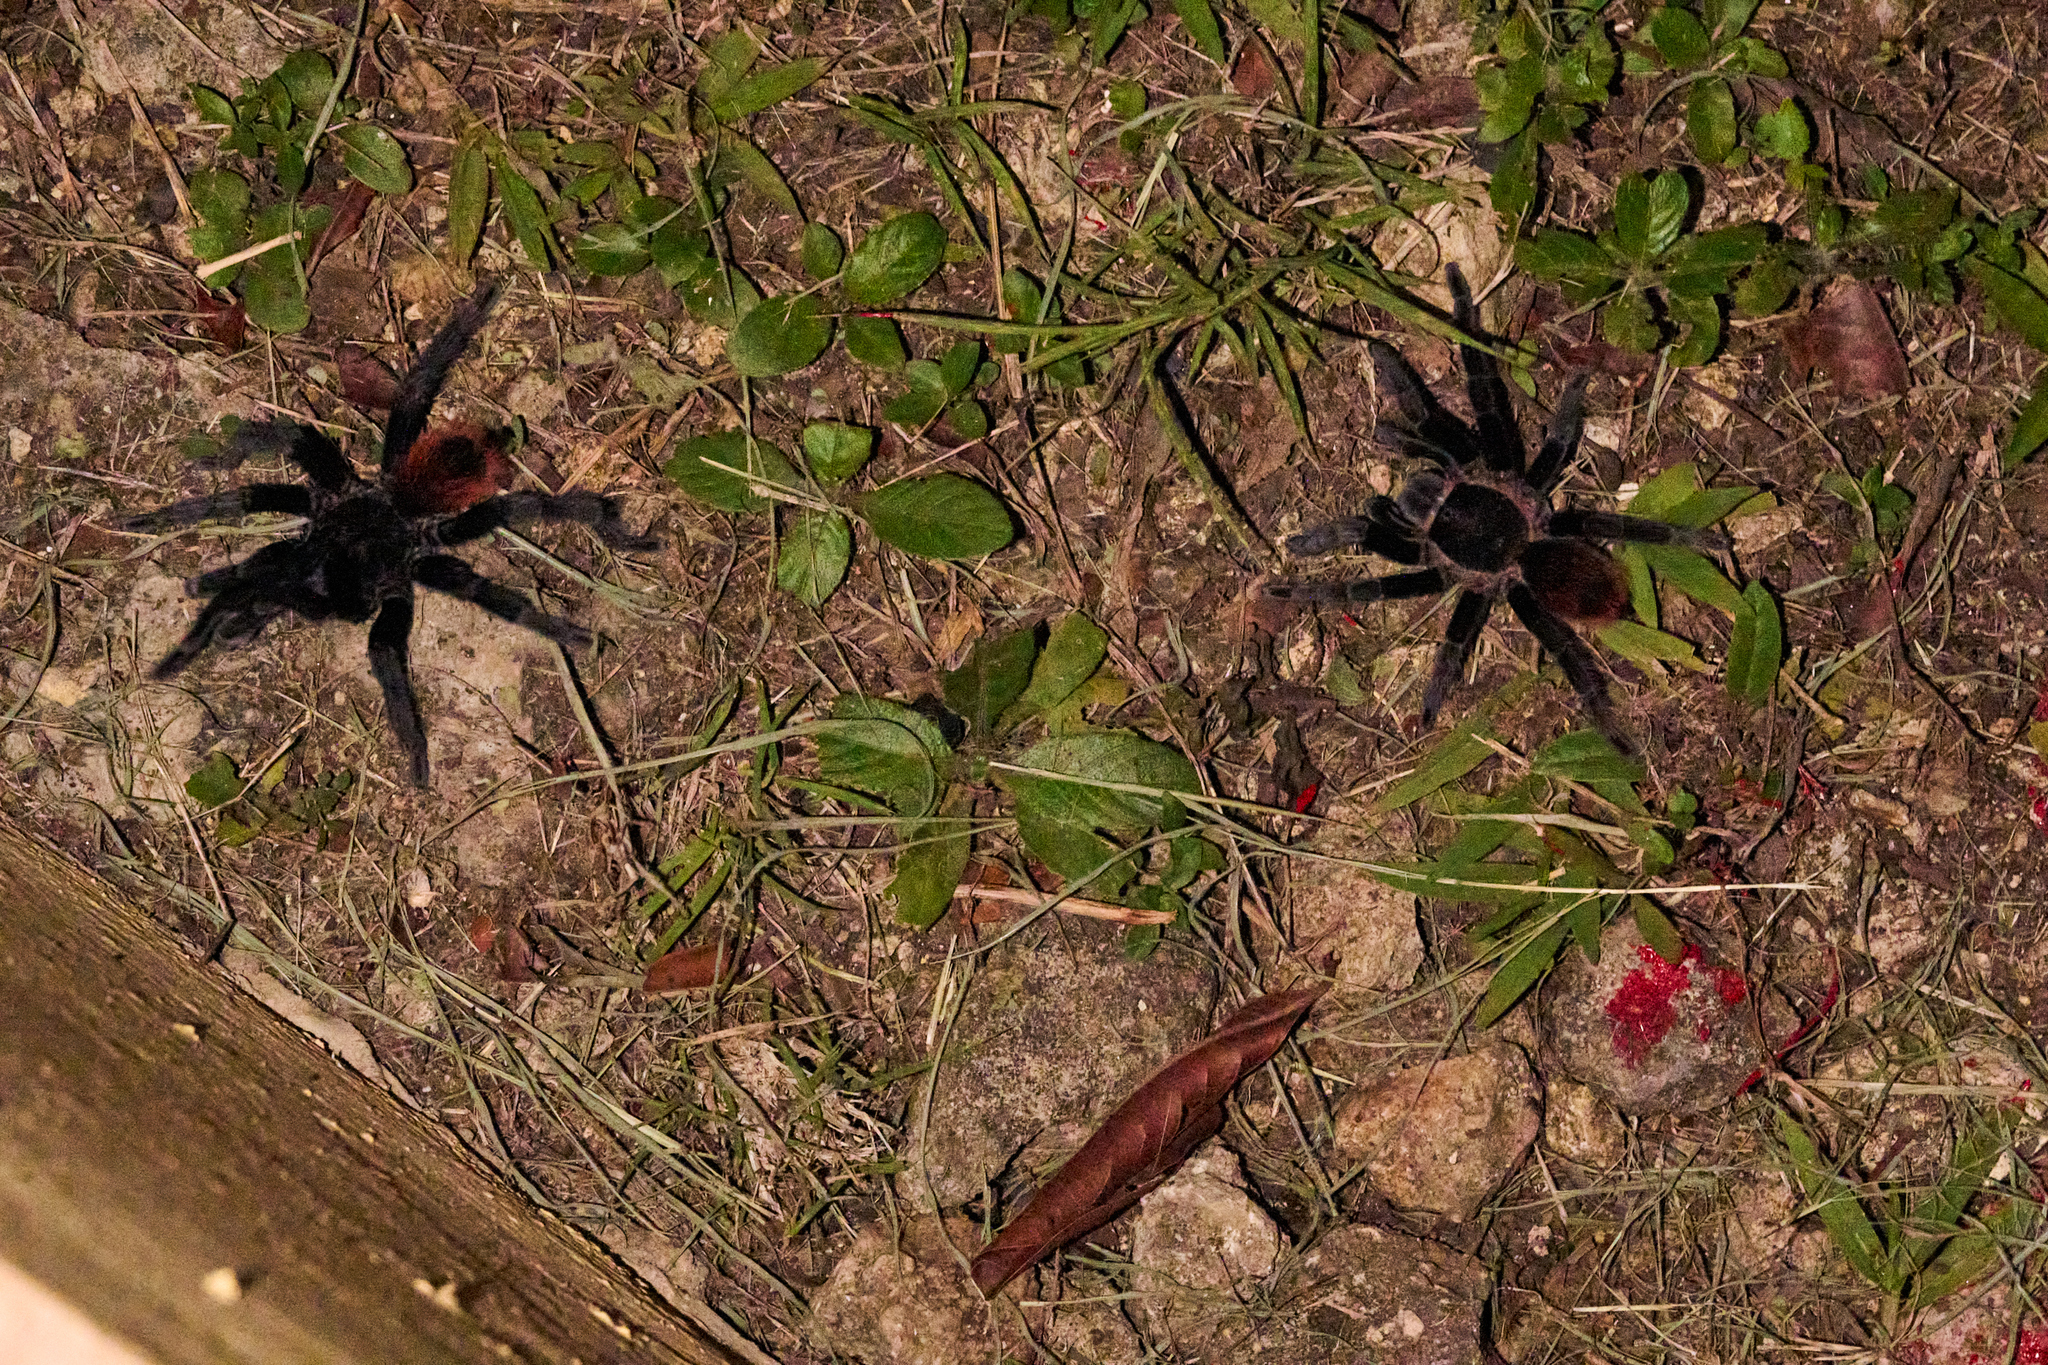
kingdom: Animalia
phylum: Arthropoda
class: Arachnida
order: Araneae
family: Theraphosidae
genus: Tliltocatl
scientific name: Tliltocatl vagans
